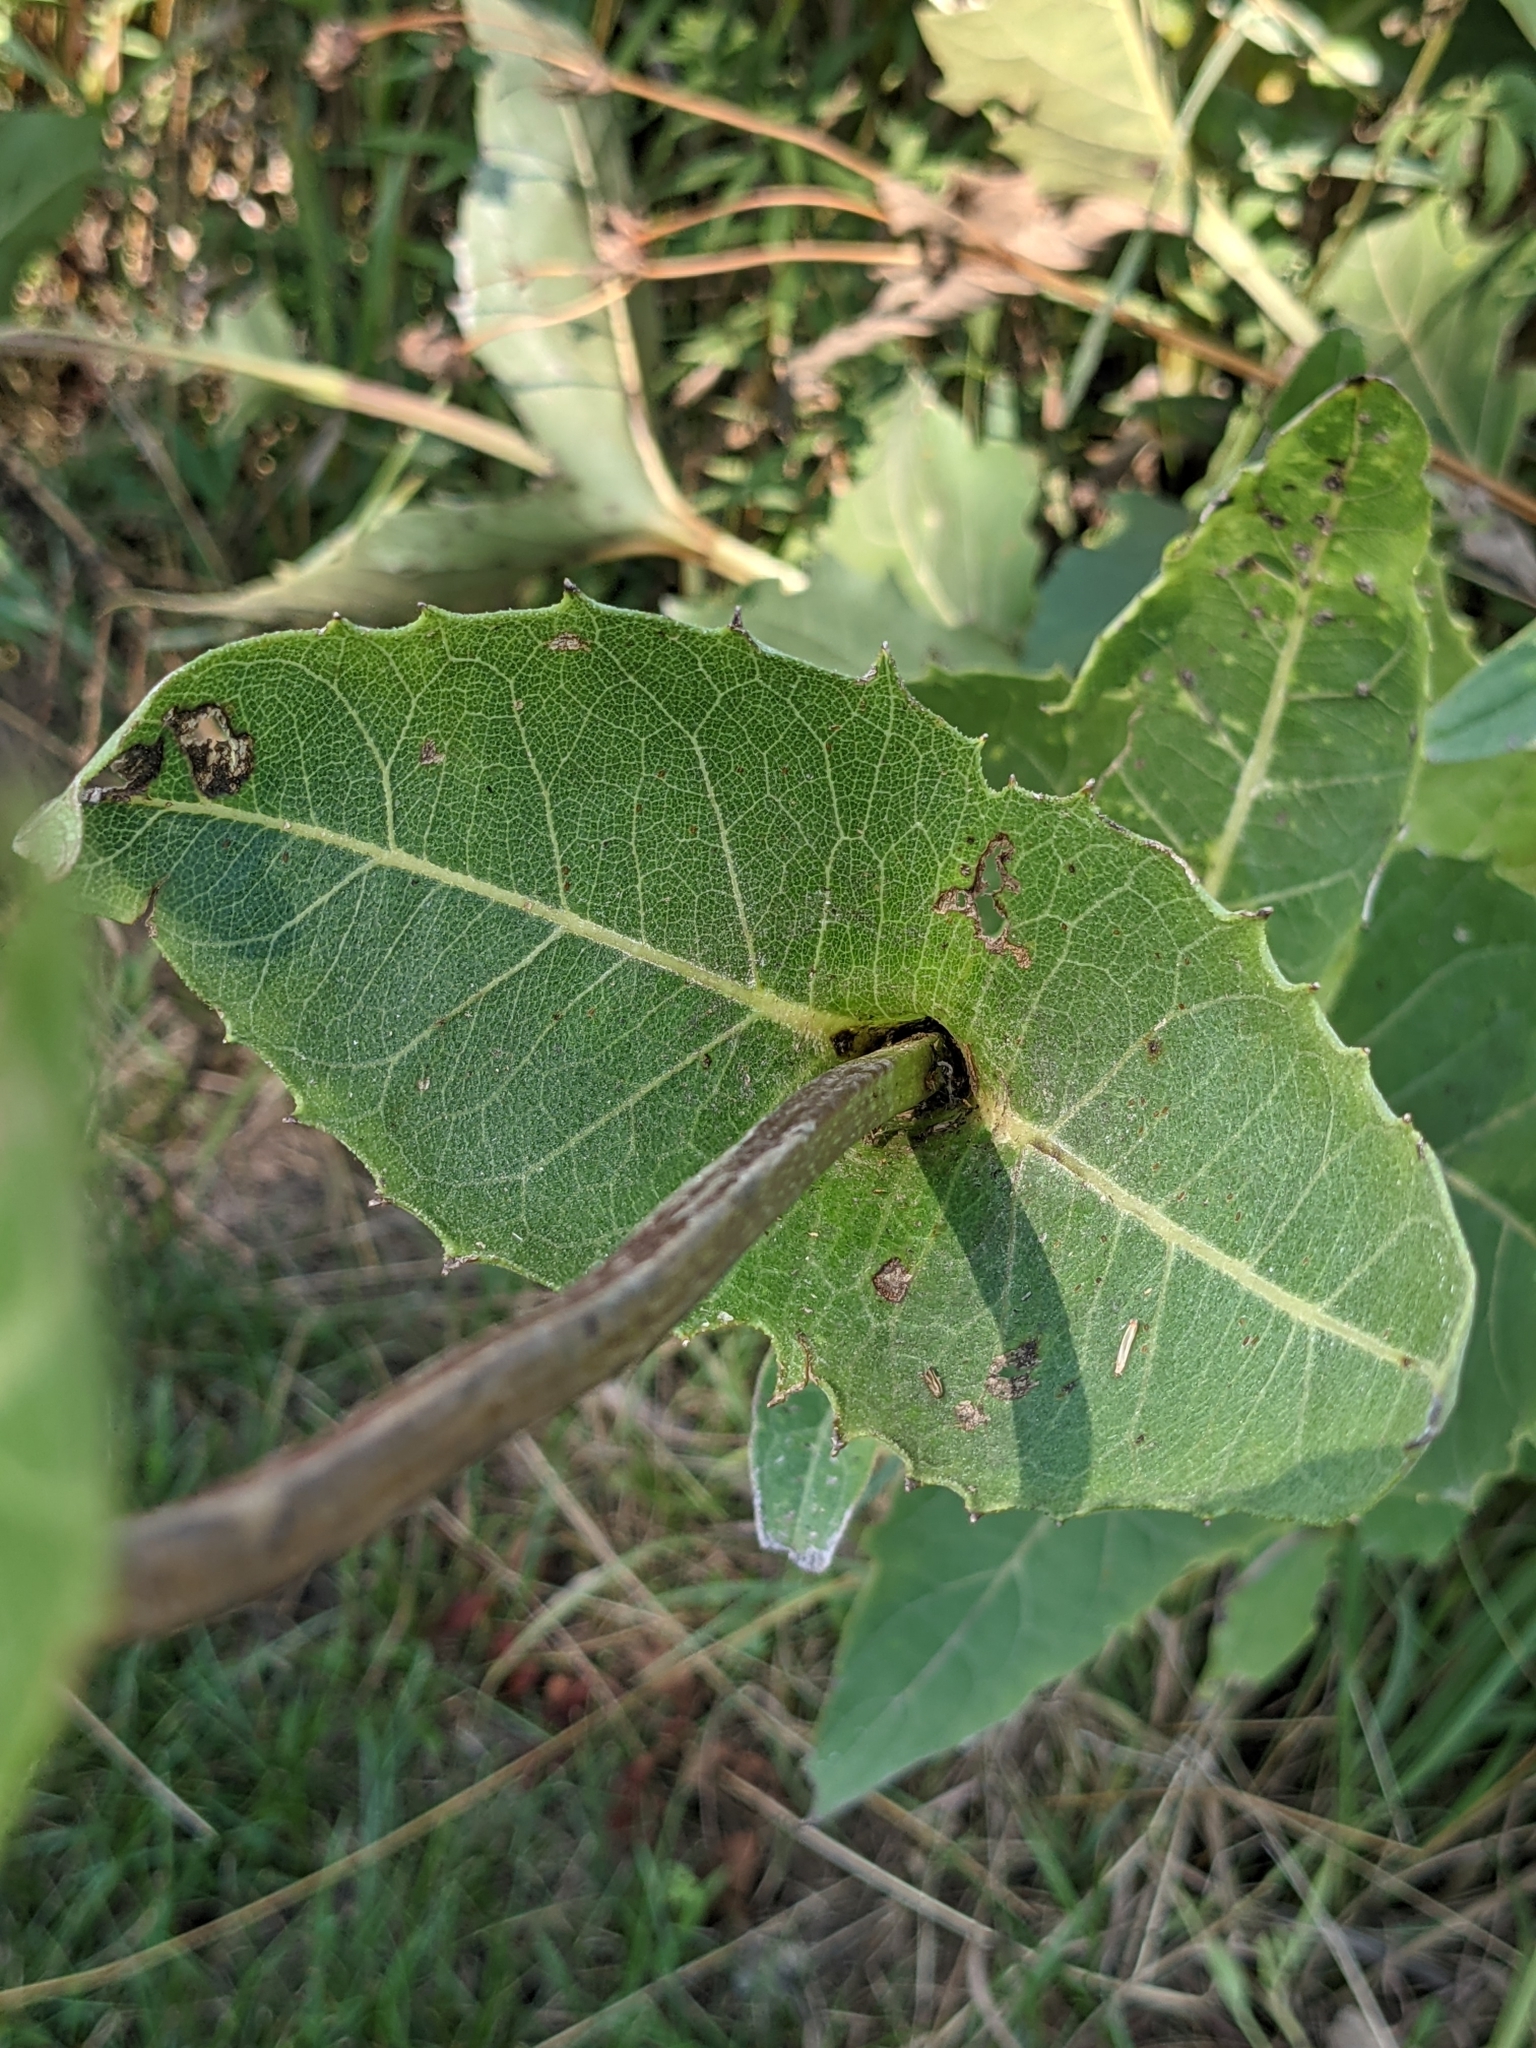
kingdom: Plantae
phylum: Tracheophyta
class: Magnoliopsida
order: Asterales
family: Asteraceae
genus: Silphium
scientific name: Silphium perfoliatum
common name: Cup-plant
